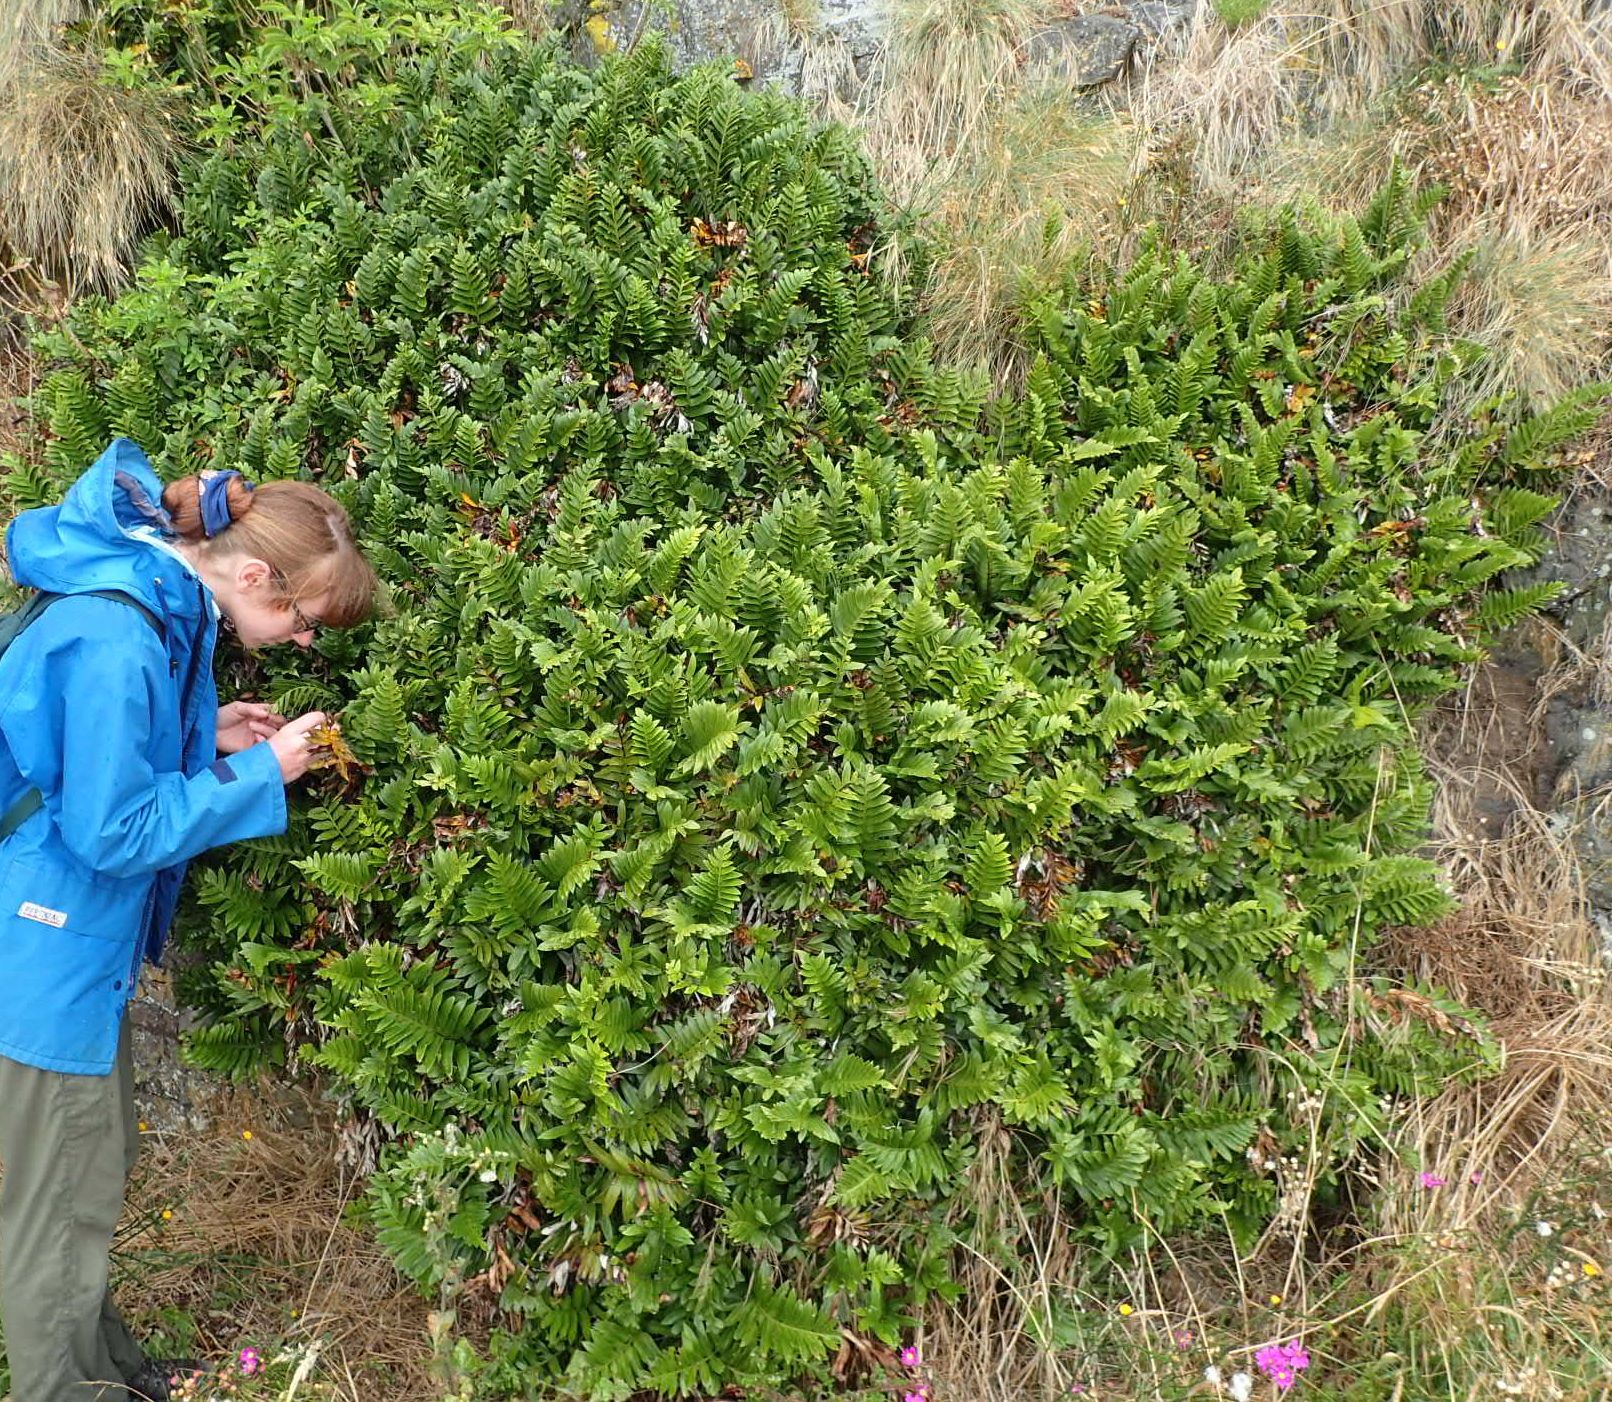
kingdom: Plantae
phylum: Tracheophyta
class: Polypodiopsida
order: Polypodiales
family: Aspleniaceae
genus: Asplenium
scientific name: Asplenium obtusatum
